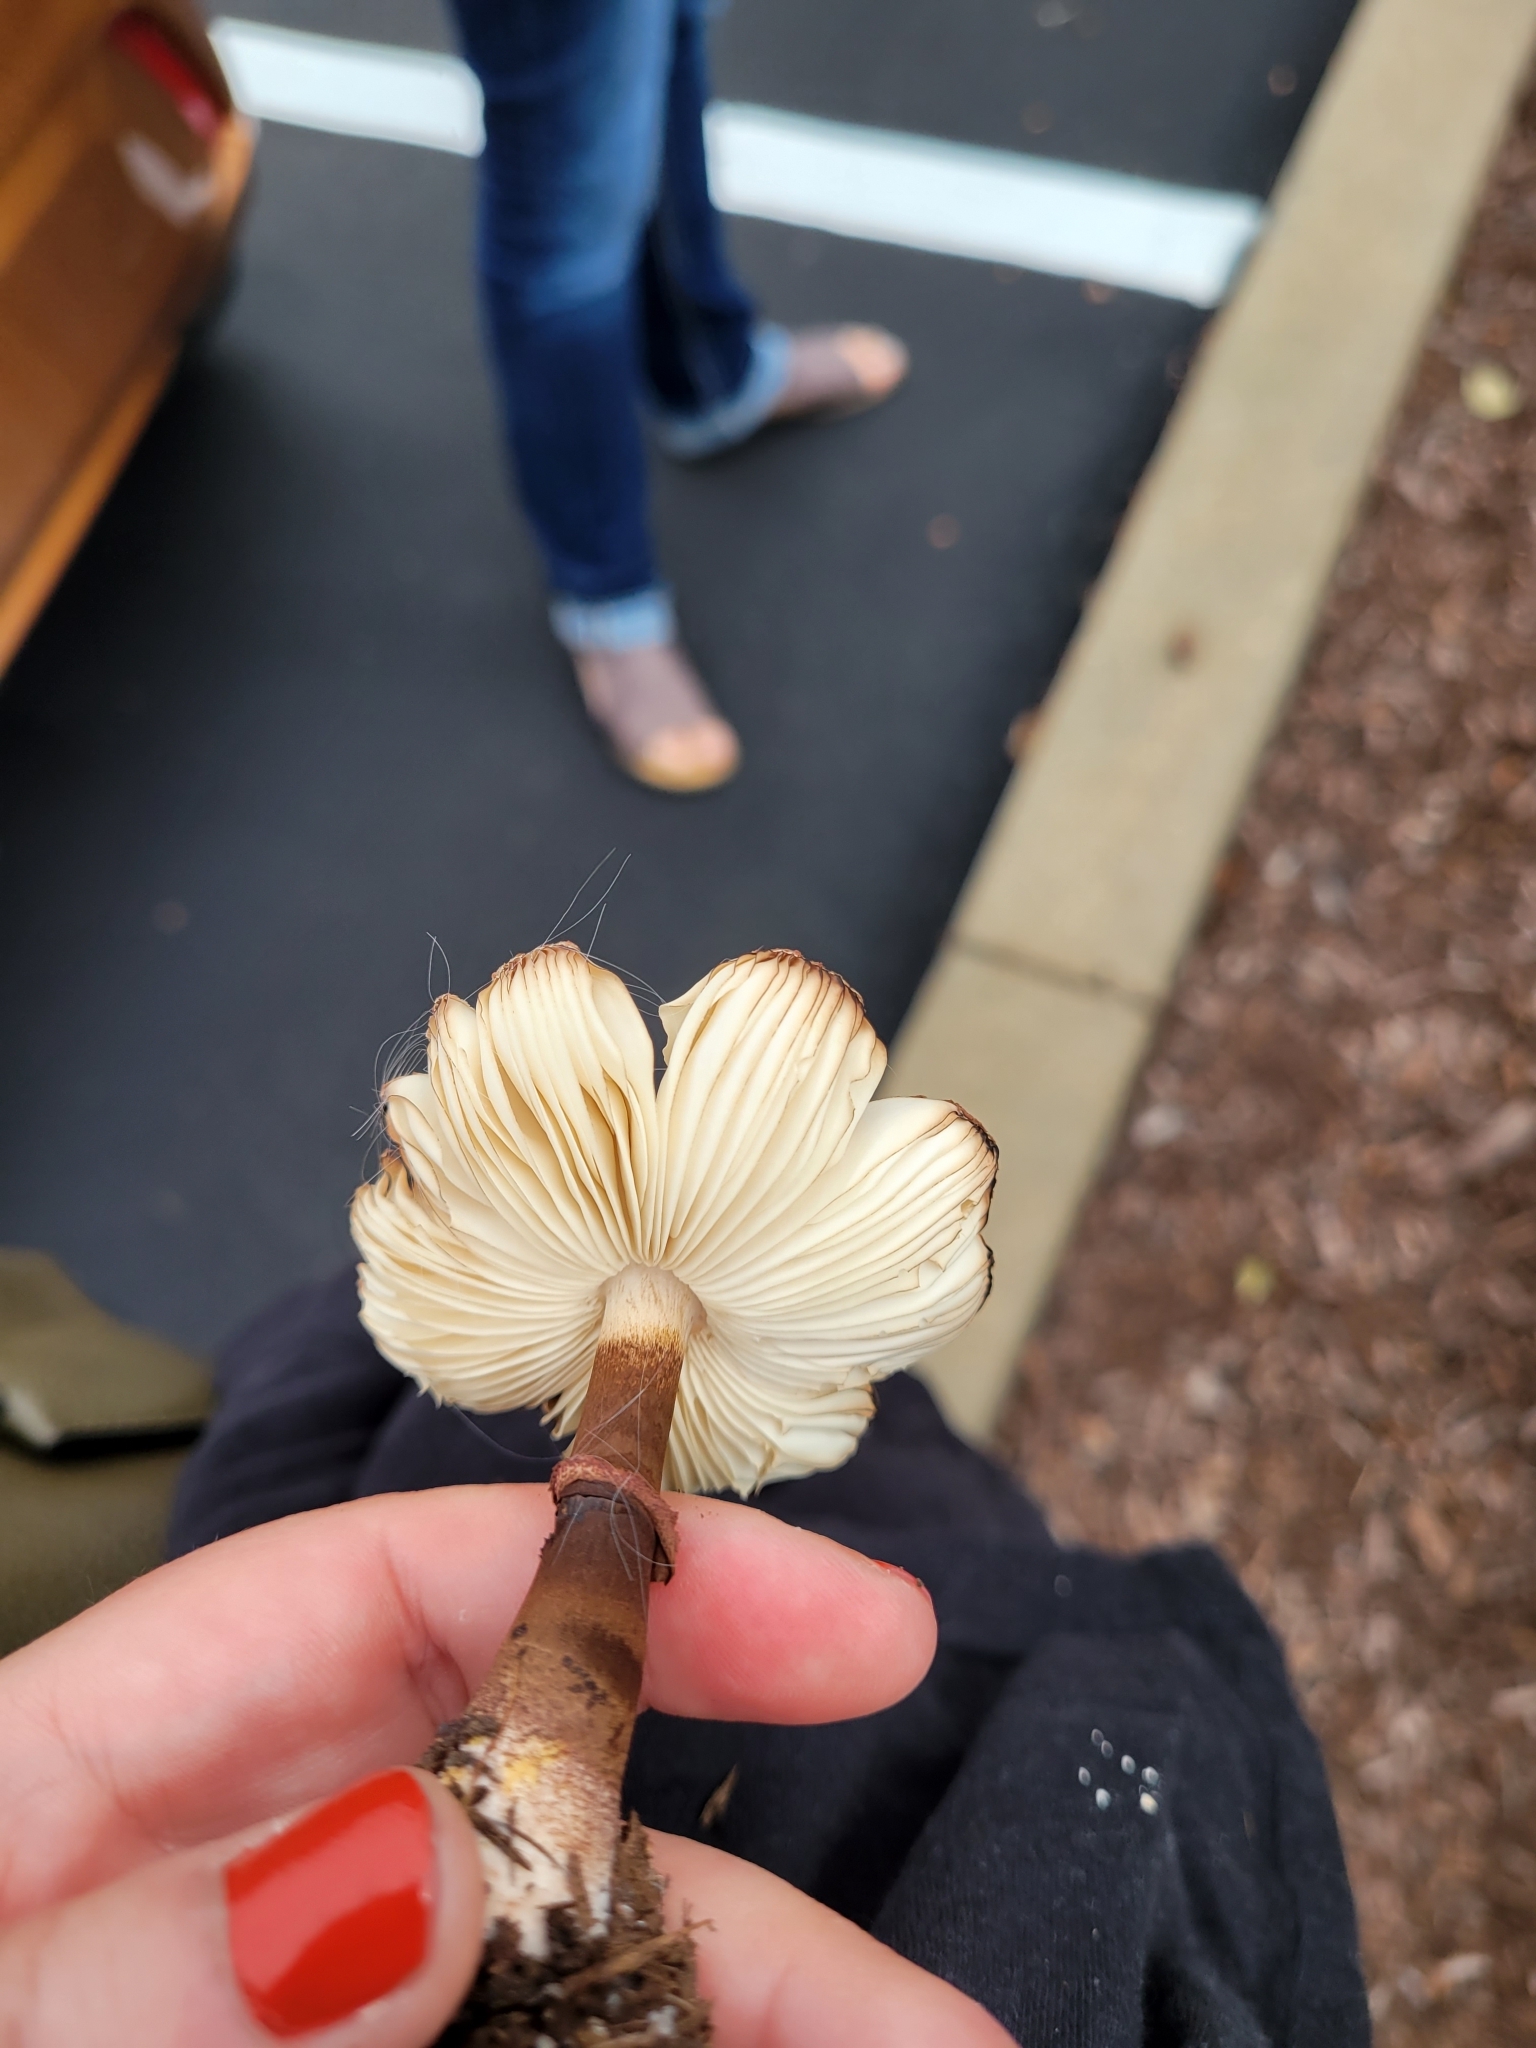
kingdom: Fungi
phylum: Basidiomycota
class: Agaricomycetes
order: Agaricales
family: Agaricaceae
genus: Leucoagaricus
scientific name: Leucoagaricus americanus
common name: Reddening lepiota
